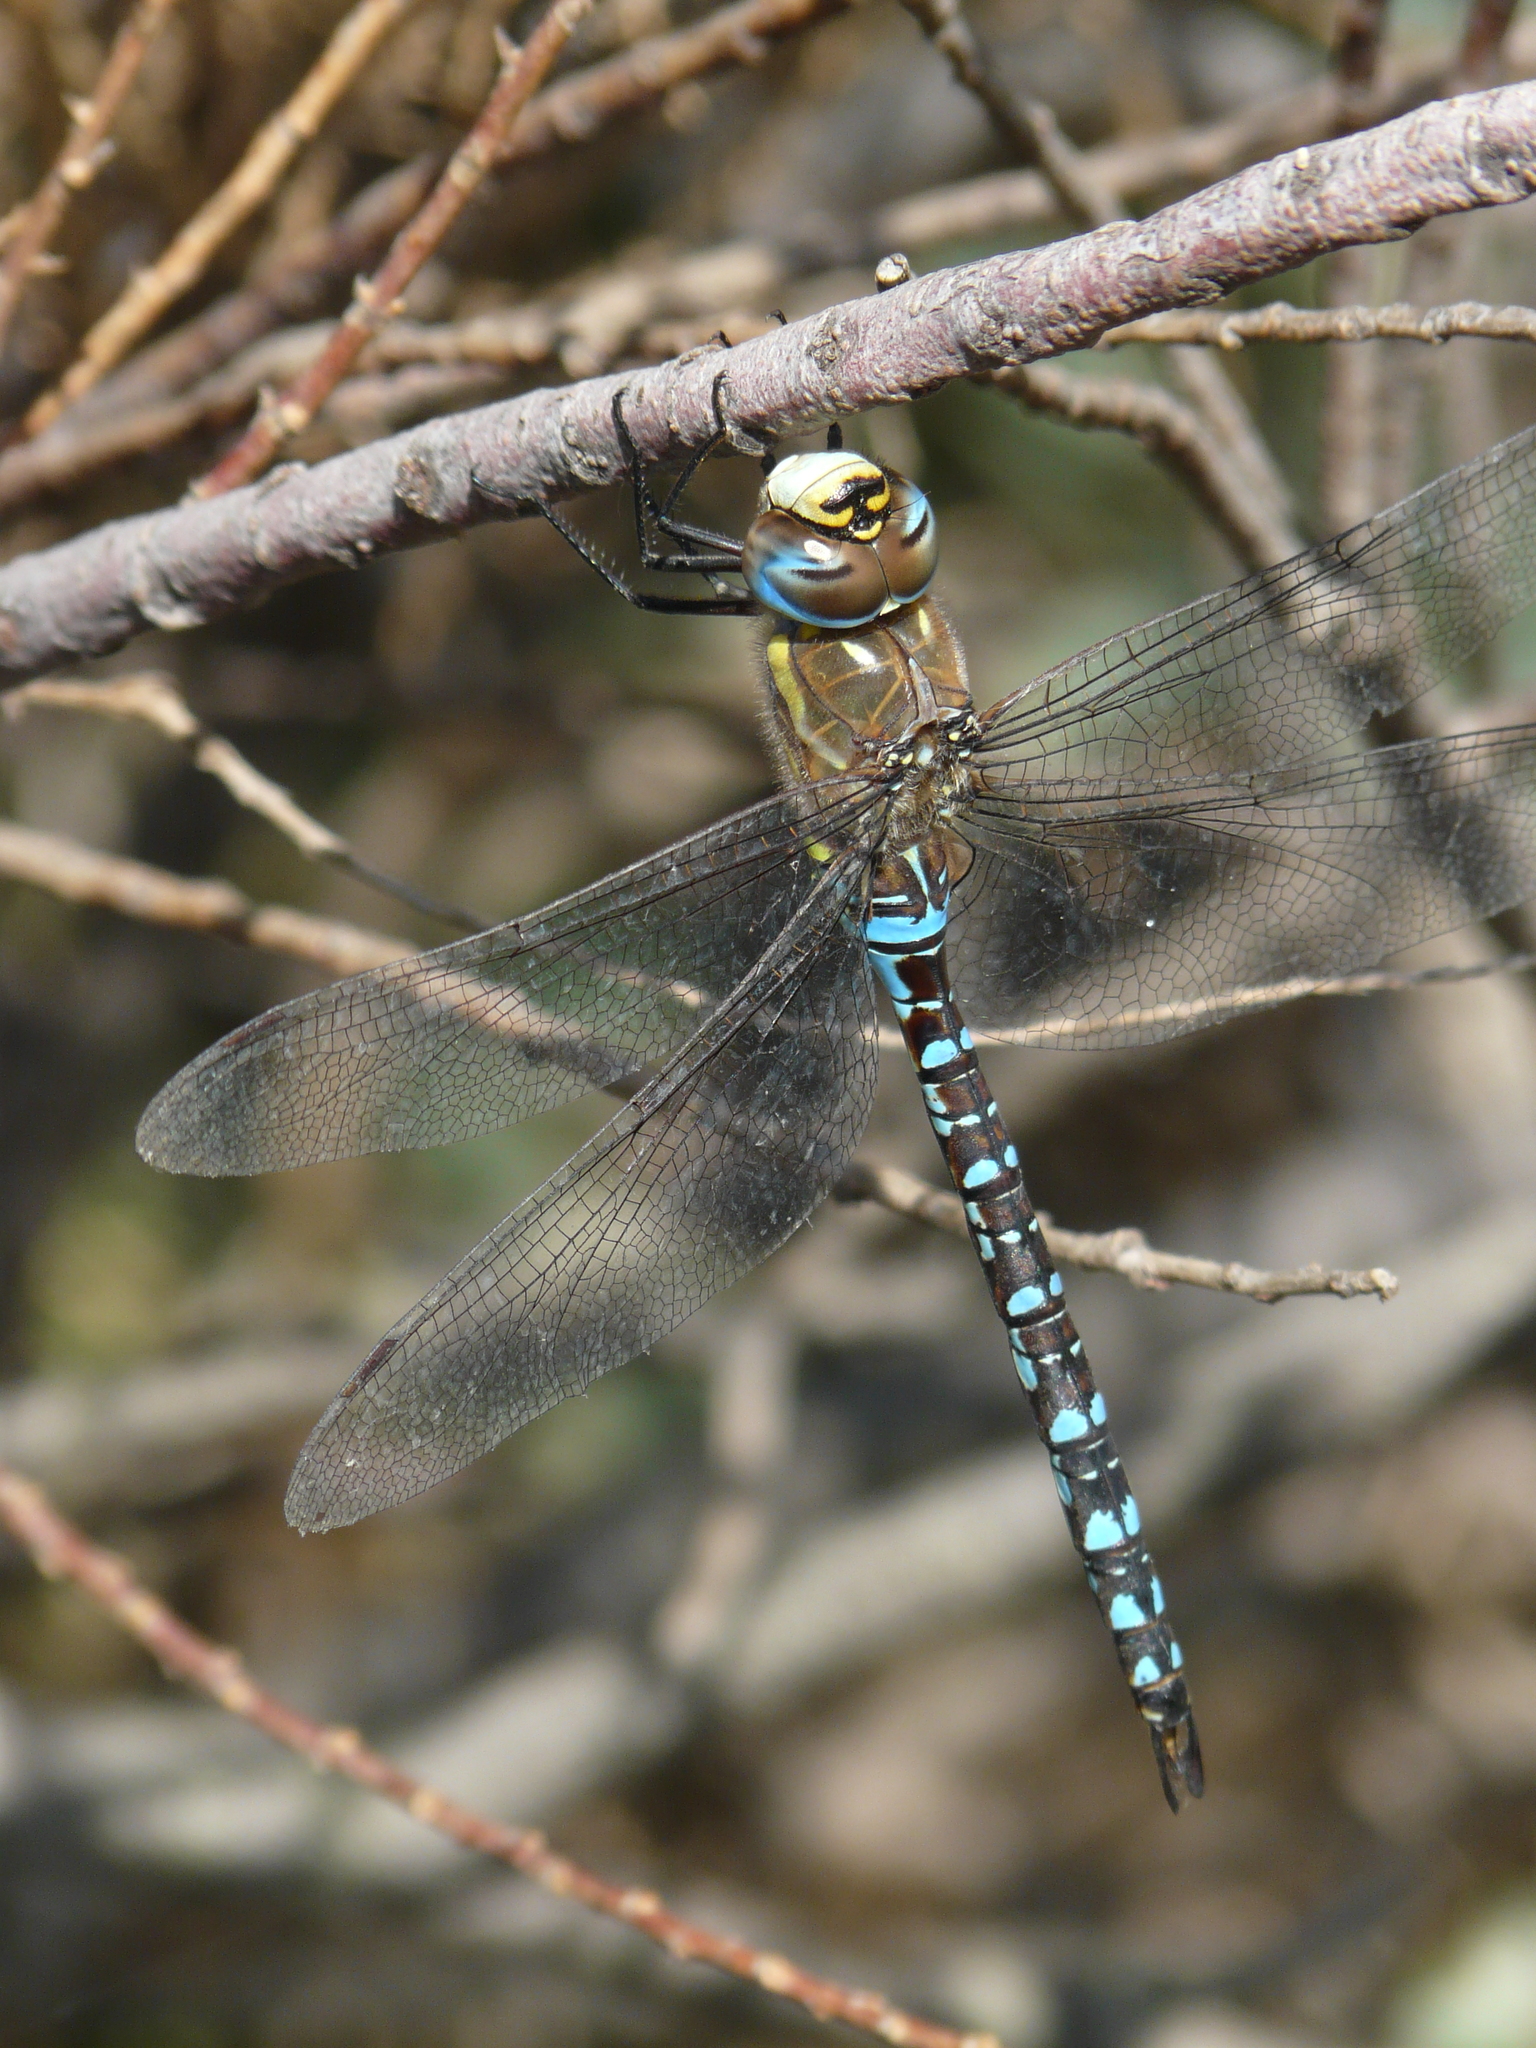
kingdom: Animalia
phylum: Arthropoda
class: Insecta
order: Odonata
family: Aeshnidae
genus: Aeshna
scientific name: Aeshna mixta
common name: Migrant hawker
